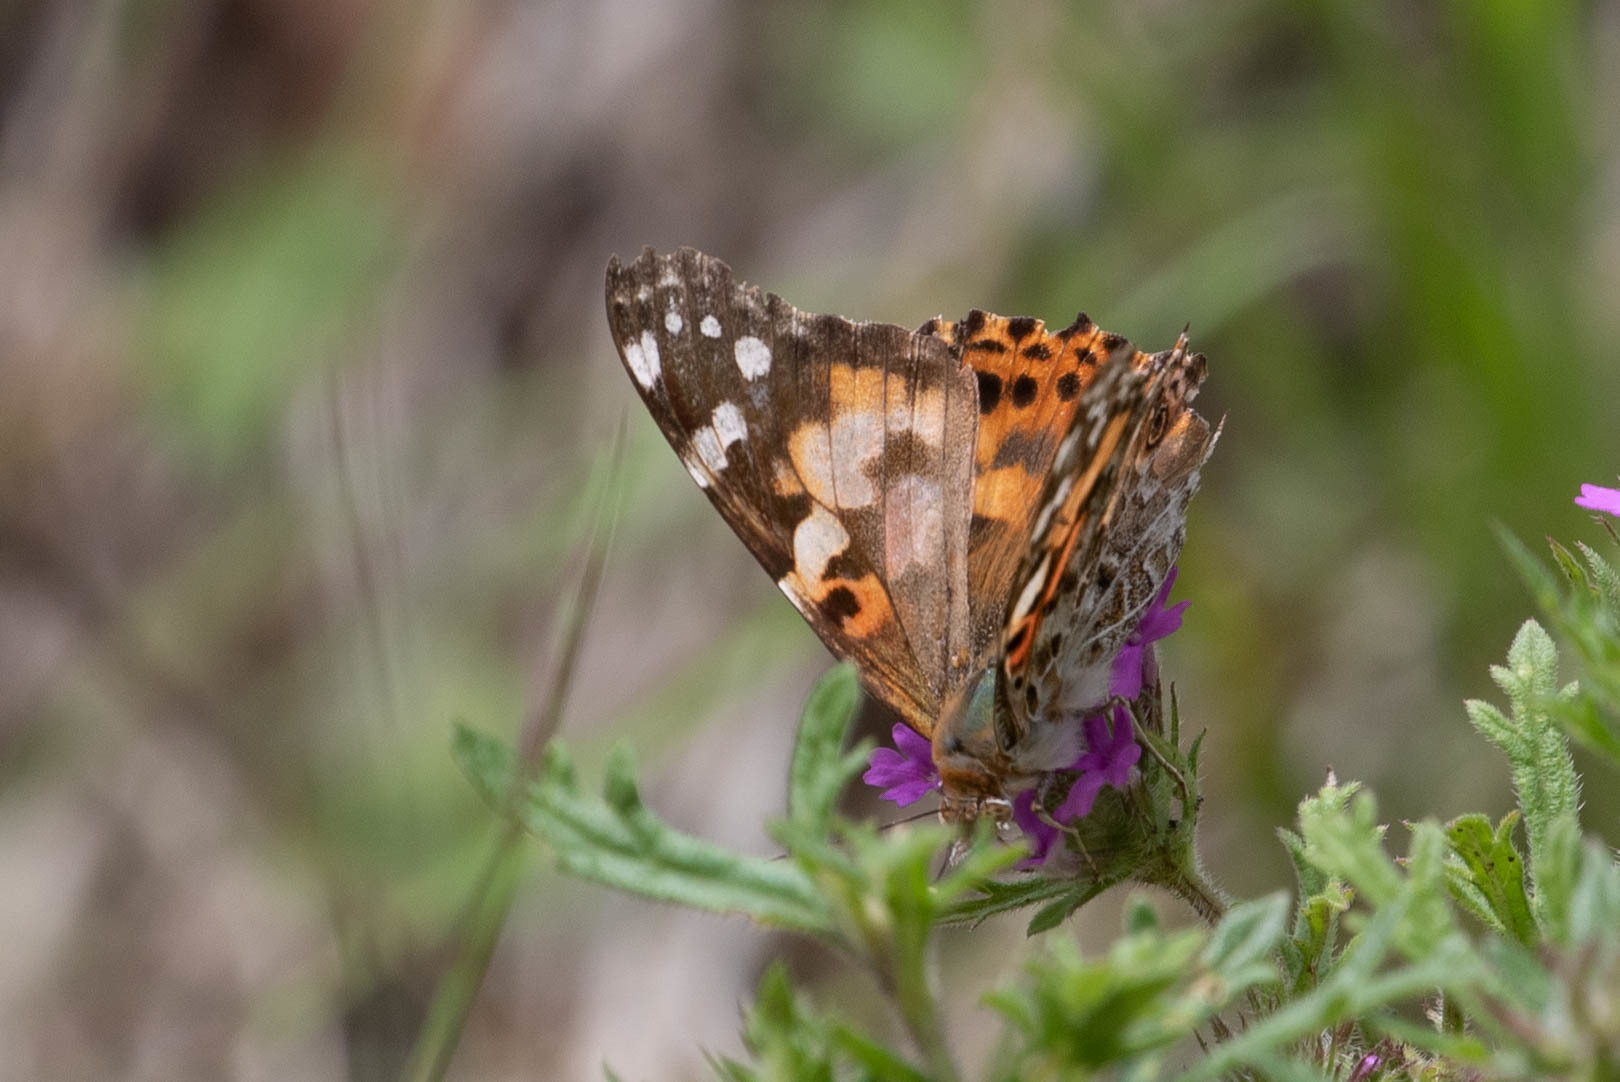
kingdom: Animalia
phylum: Arthropoda
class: Insecta
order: Lepidoptera
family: Nymphalidae
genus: Vanessa
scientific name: Vanessa cardui
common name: Painted lady
